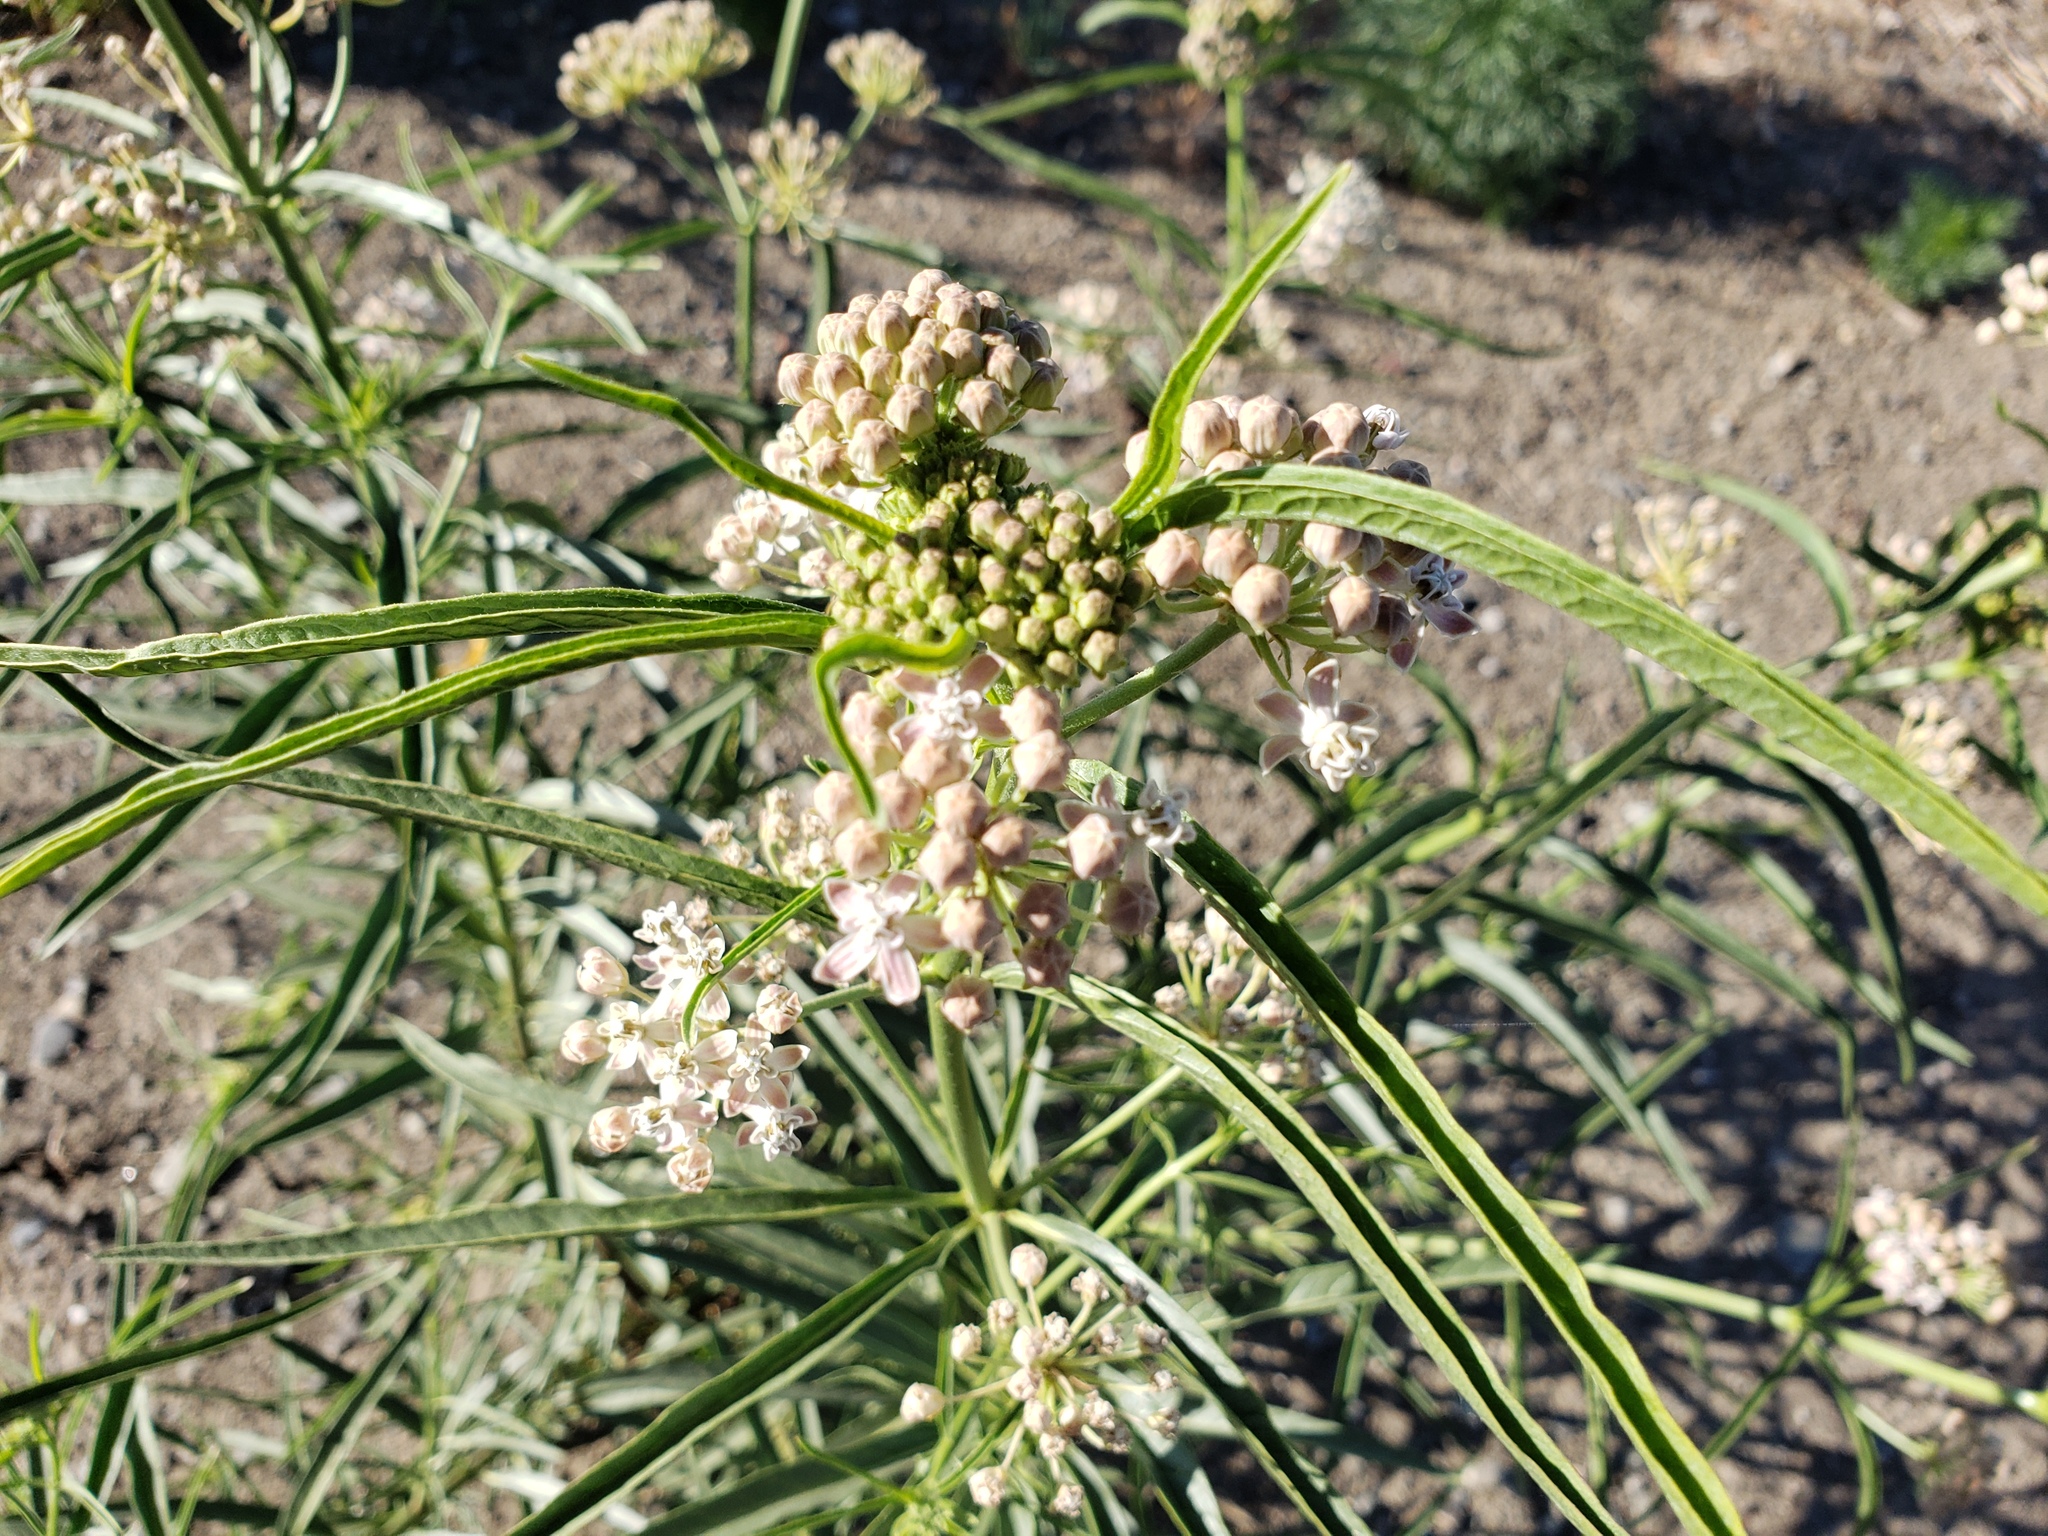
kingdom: Plantae
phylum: Tracheophyta
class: Magnoliopsida
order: Gentianales
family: Apocynaceae
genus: Asclepias
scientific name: Asclepias fascicularis
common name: Mexican milkweed
